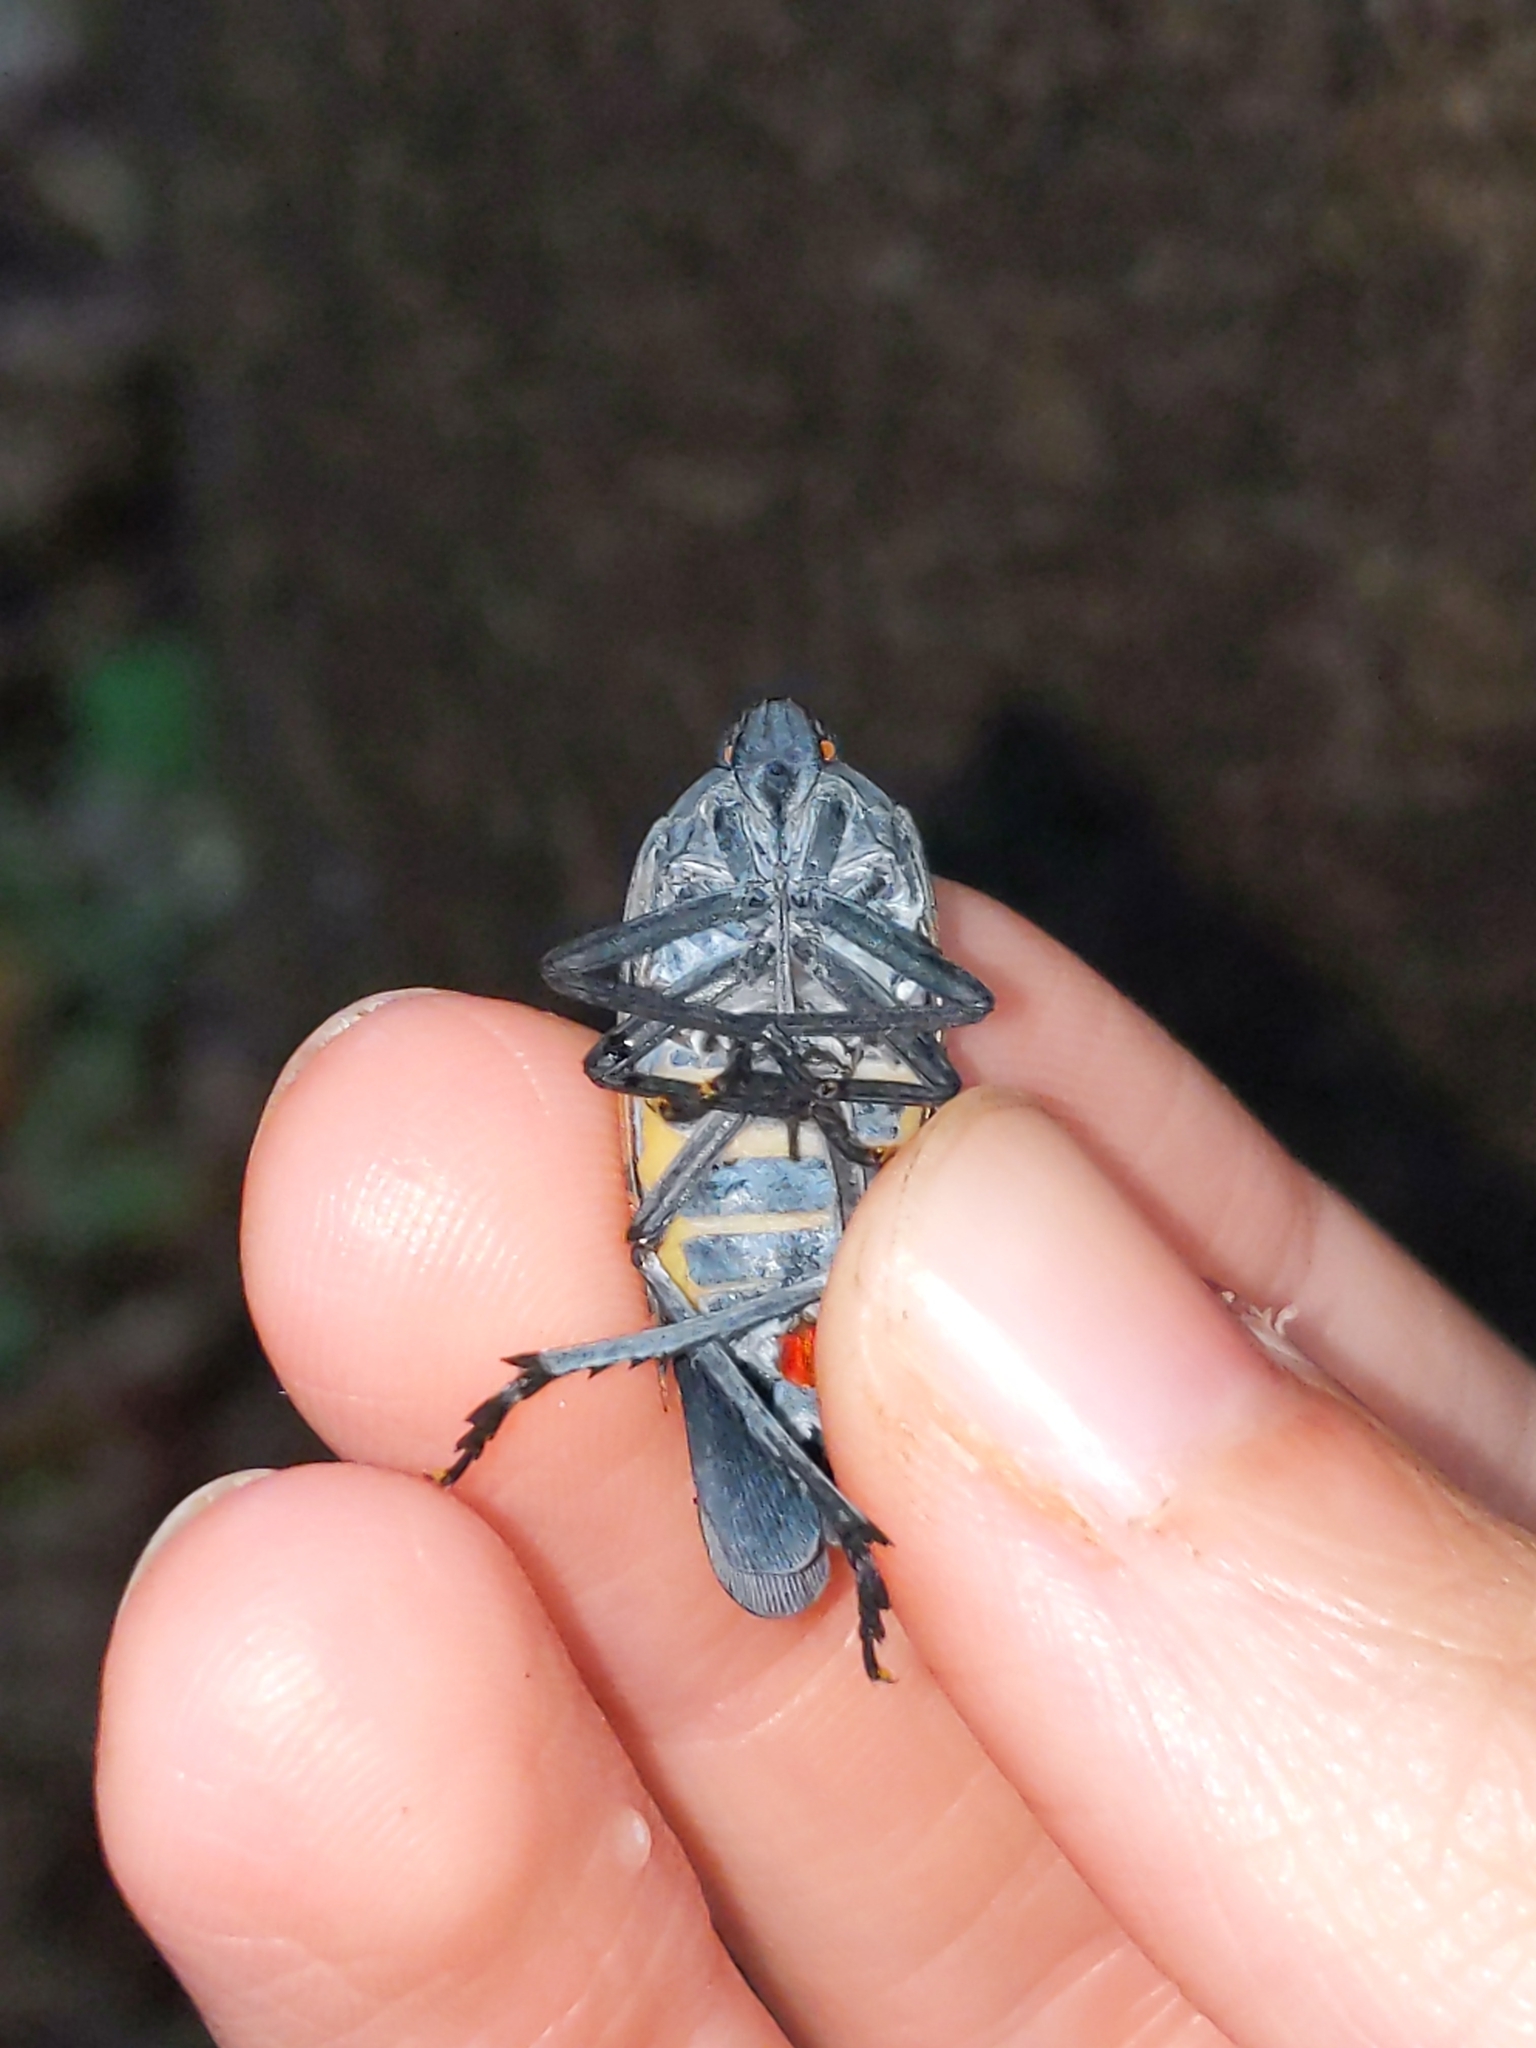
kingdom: Animalia
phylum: Arthropoda
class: Insecta
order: Hemiptera
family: Fulgoridae
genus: Lycorma
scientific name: Lycorma delicatula
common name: Spotted lanternfly
